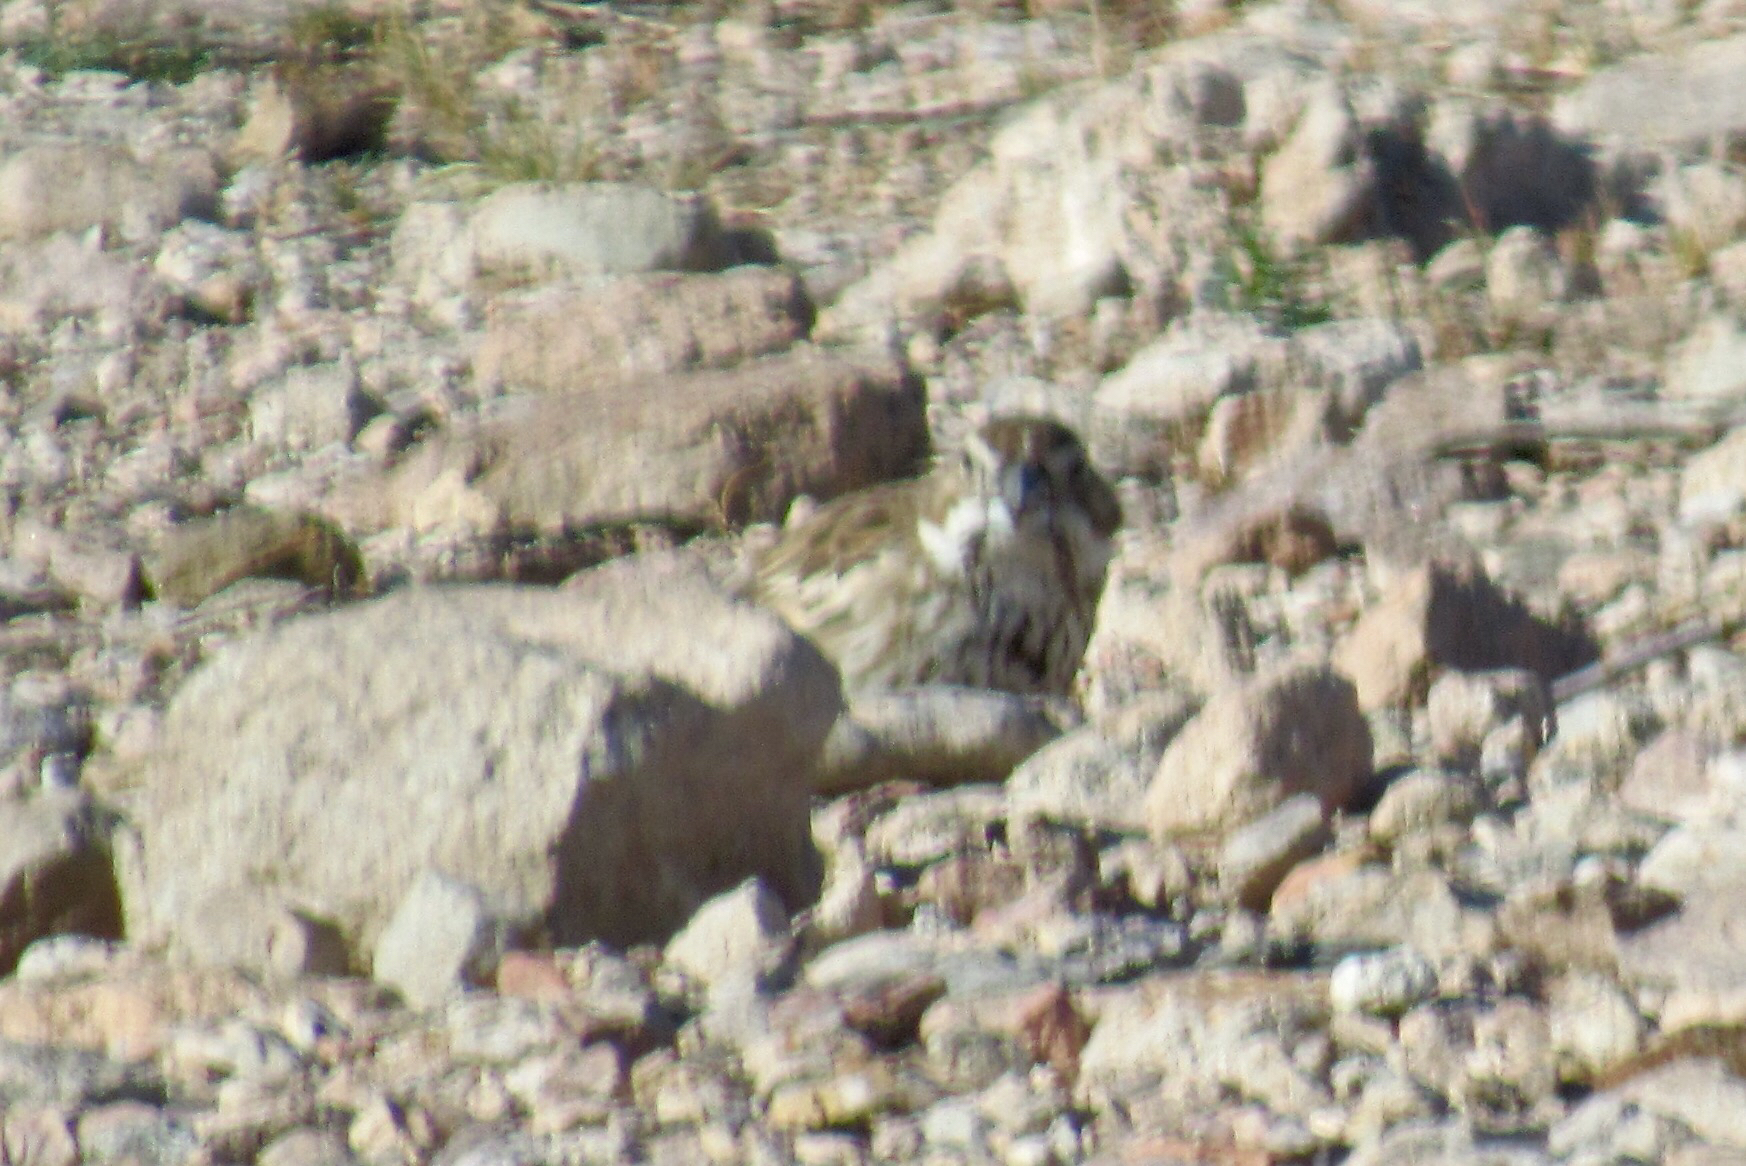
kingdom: Animalia
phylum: Chordata
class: Aves
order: Passeriformes
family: Passerellidae
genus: Calamospiza
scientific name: Calamospiza melanocorys
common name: Lark bunting
